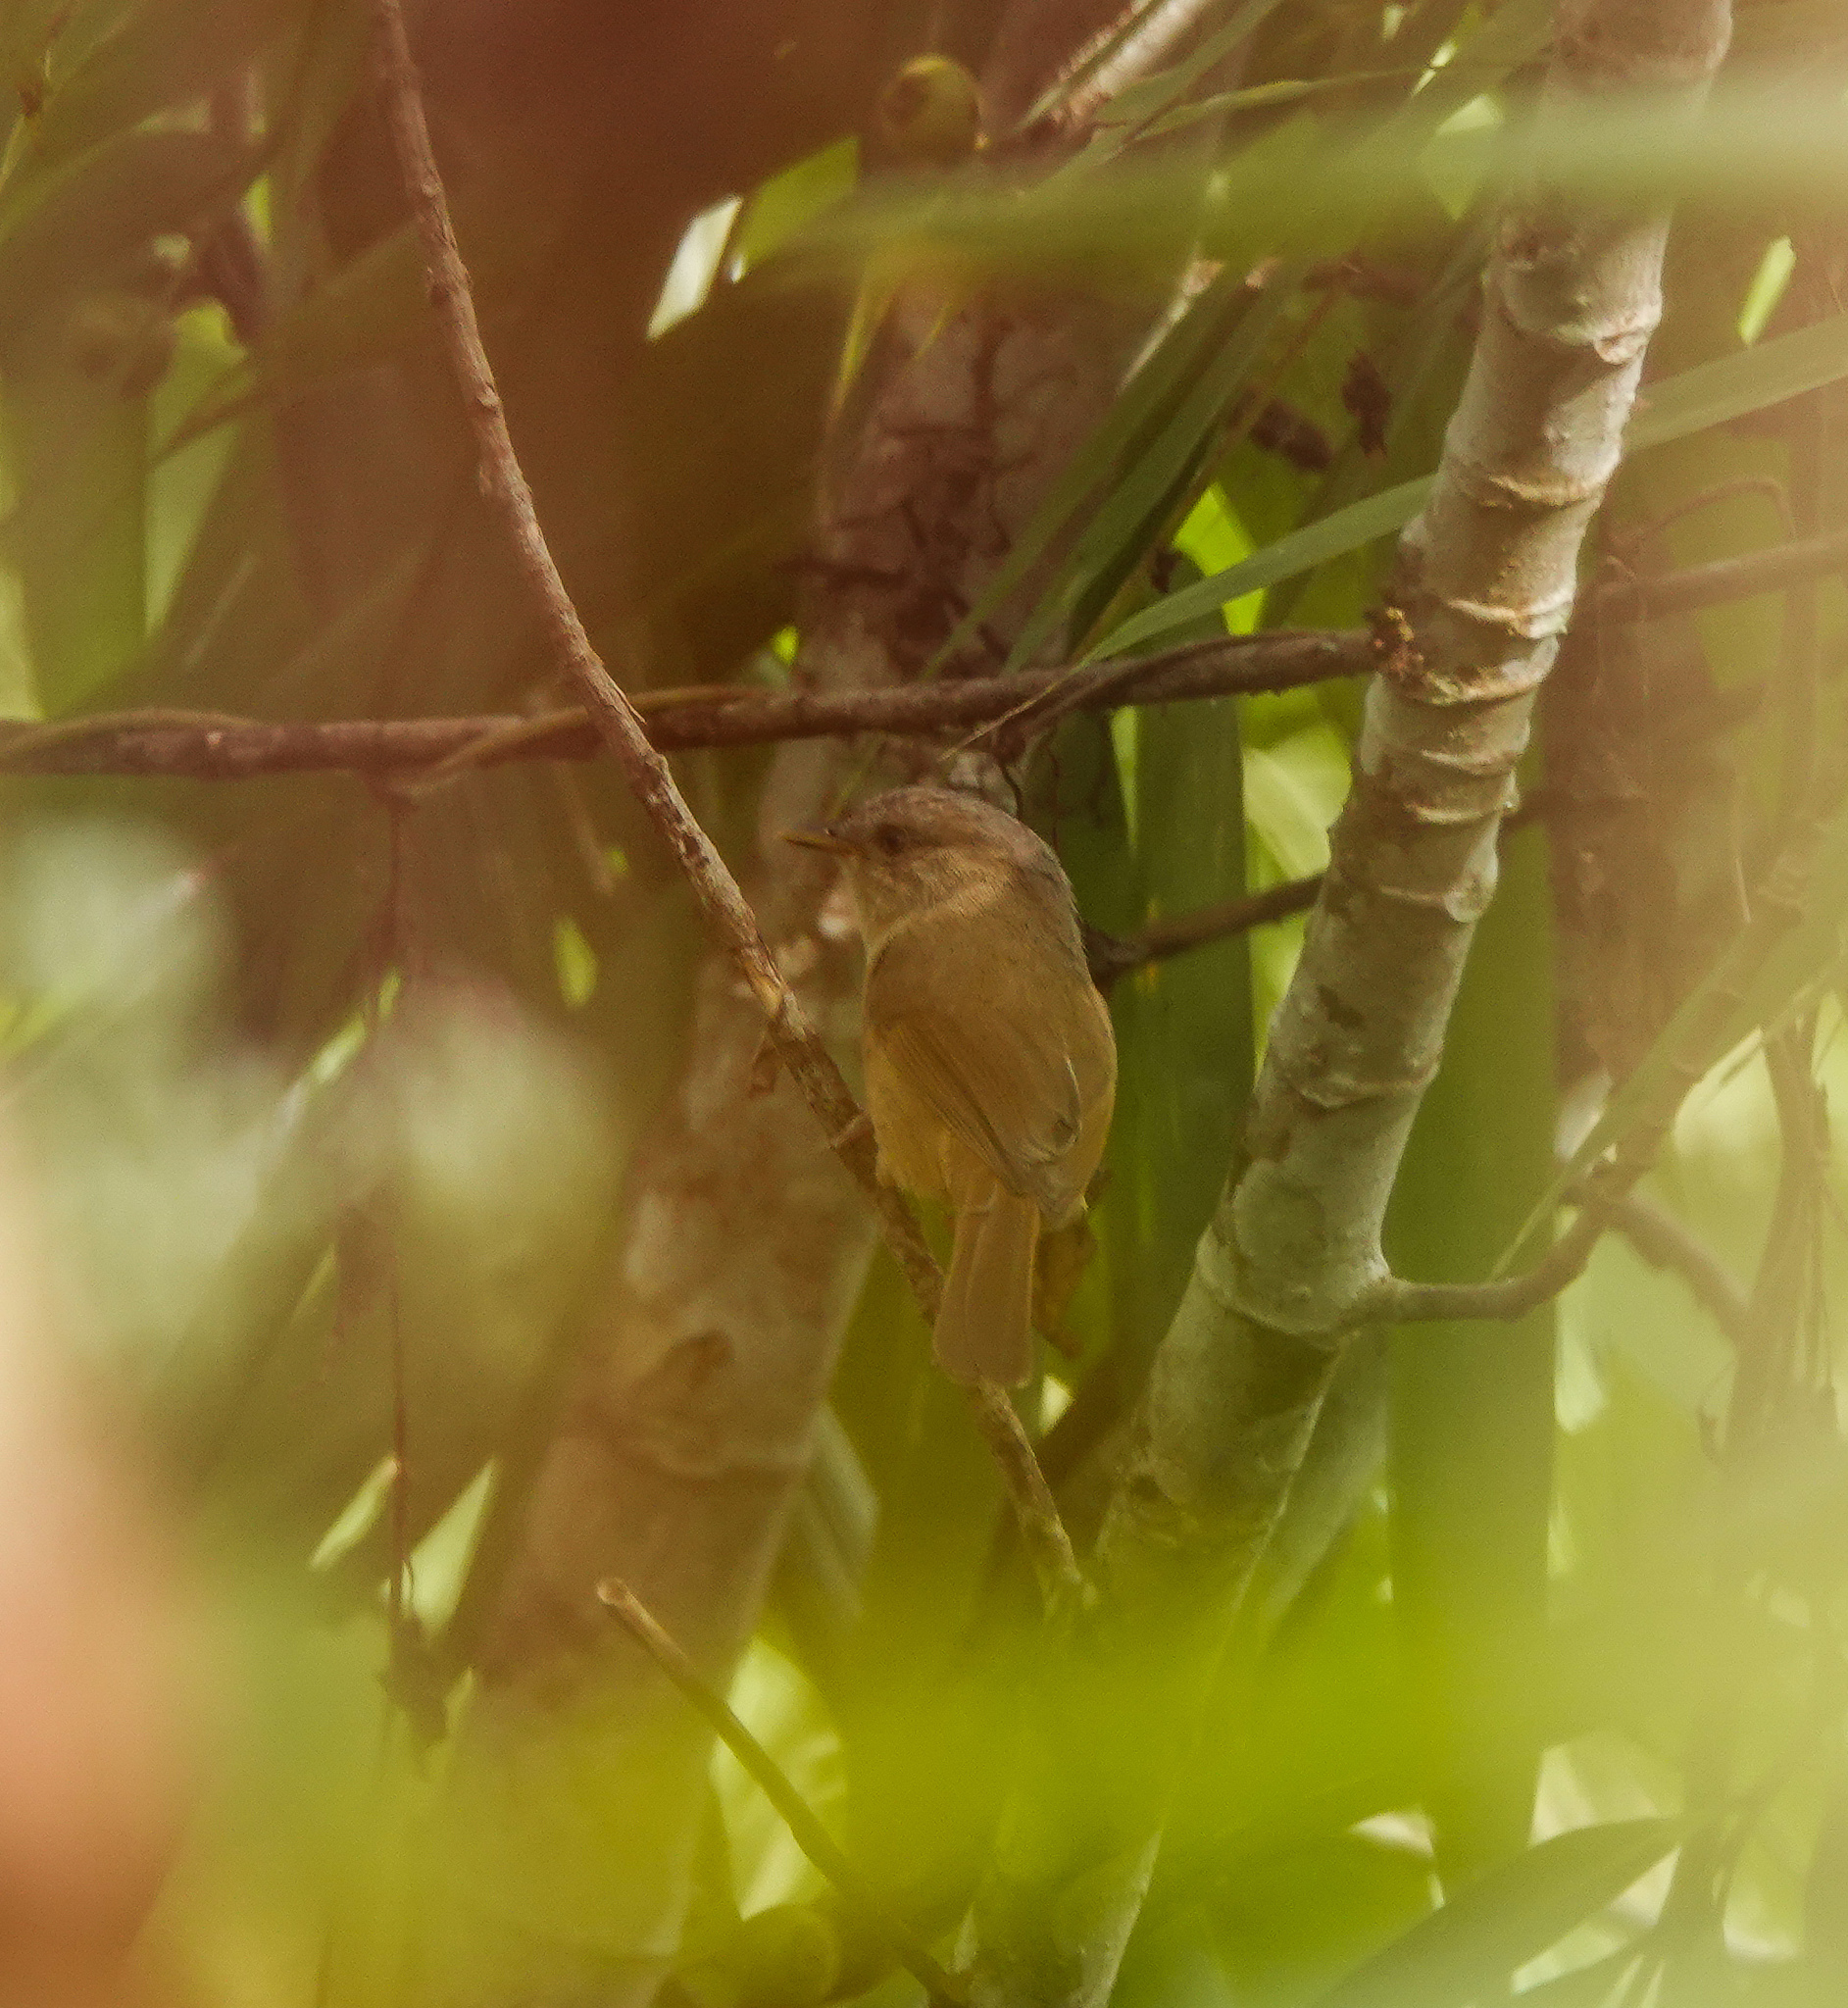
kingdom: Animalia
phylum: Chordata
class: Aves
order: Passeriformes
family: Pellorneidae
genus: Alcippe
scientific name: Alcippe poioicephala
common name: Brown-cheeked fulvetta
